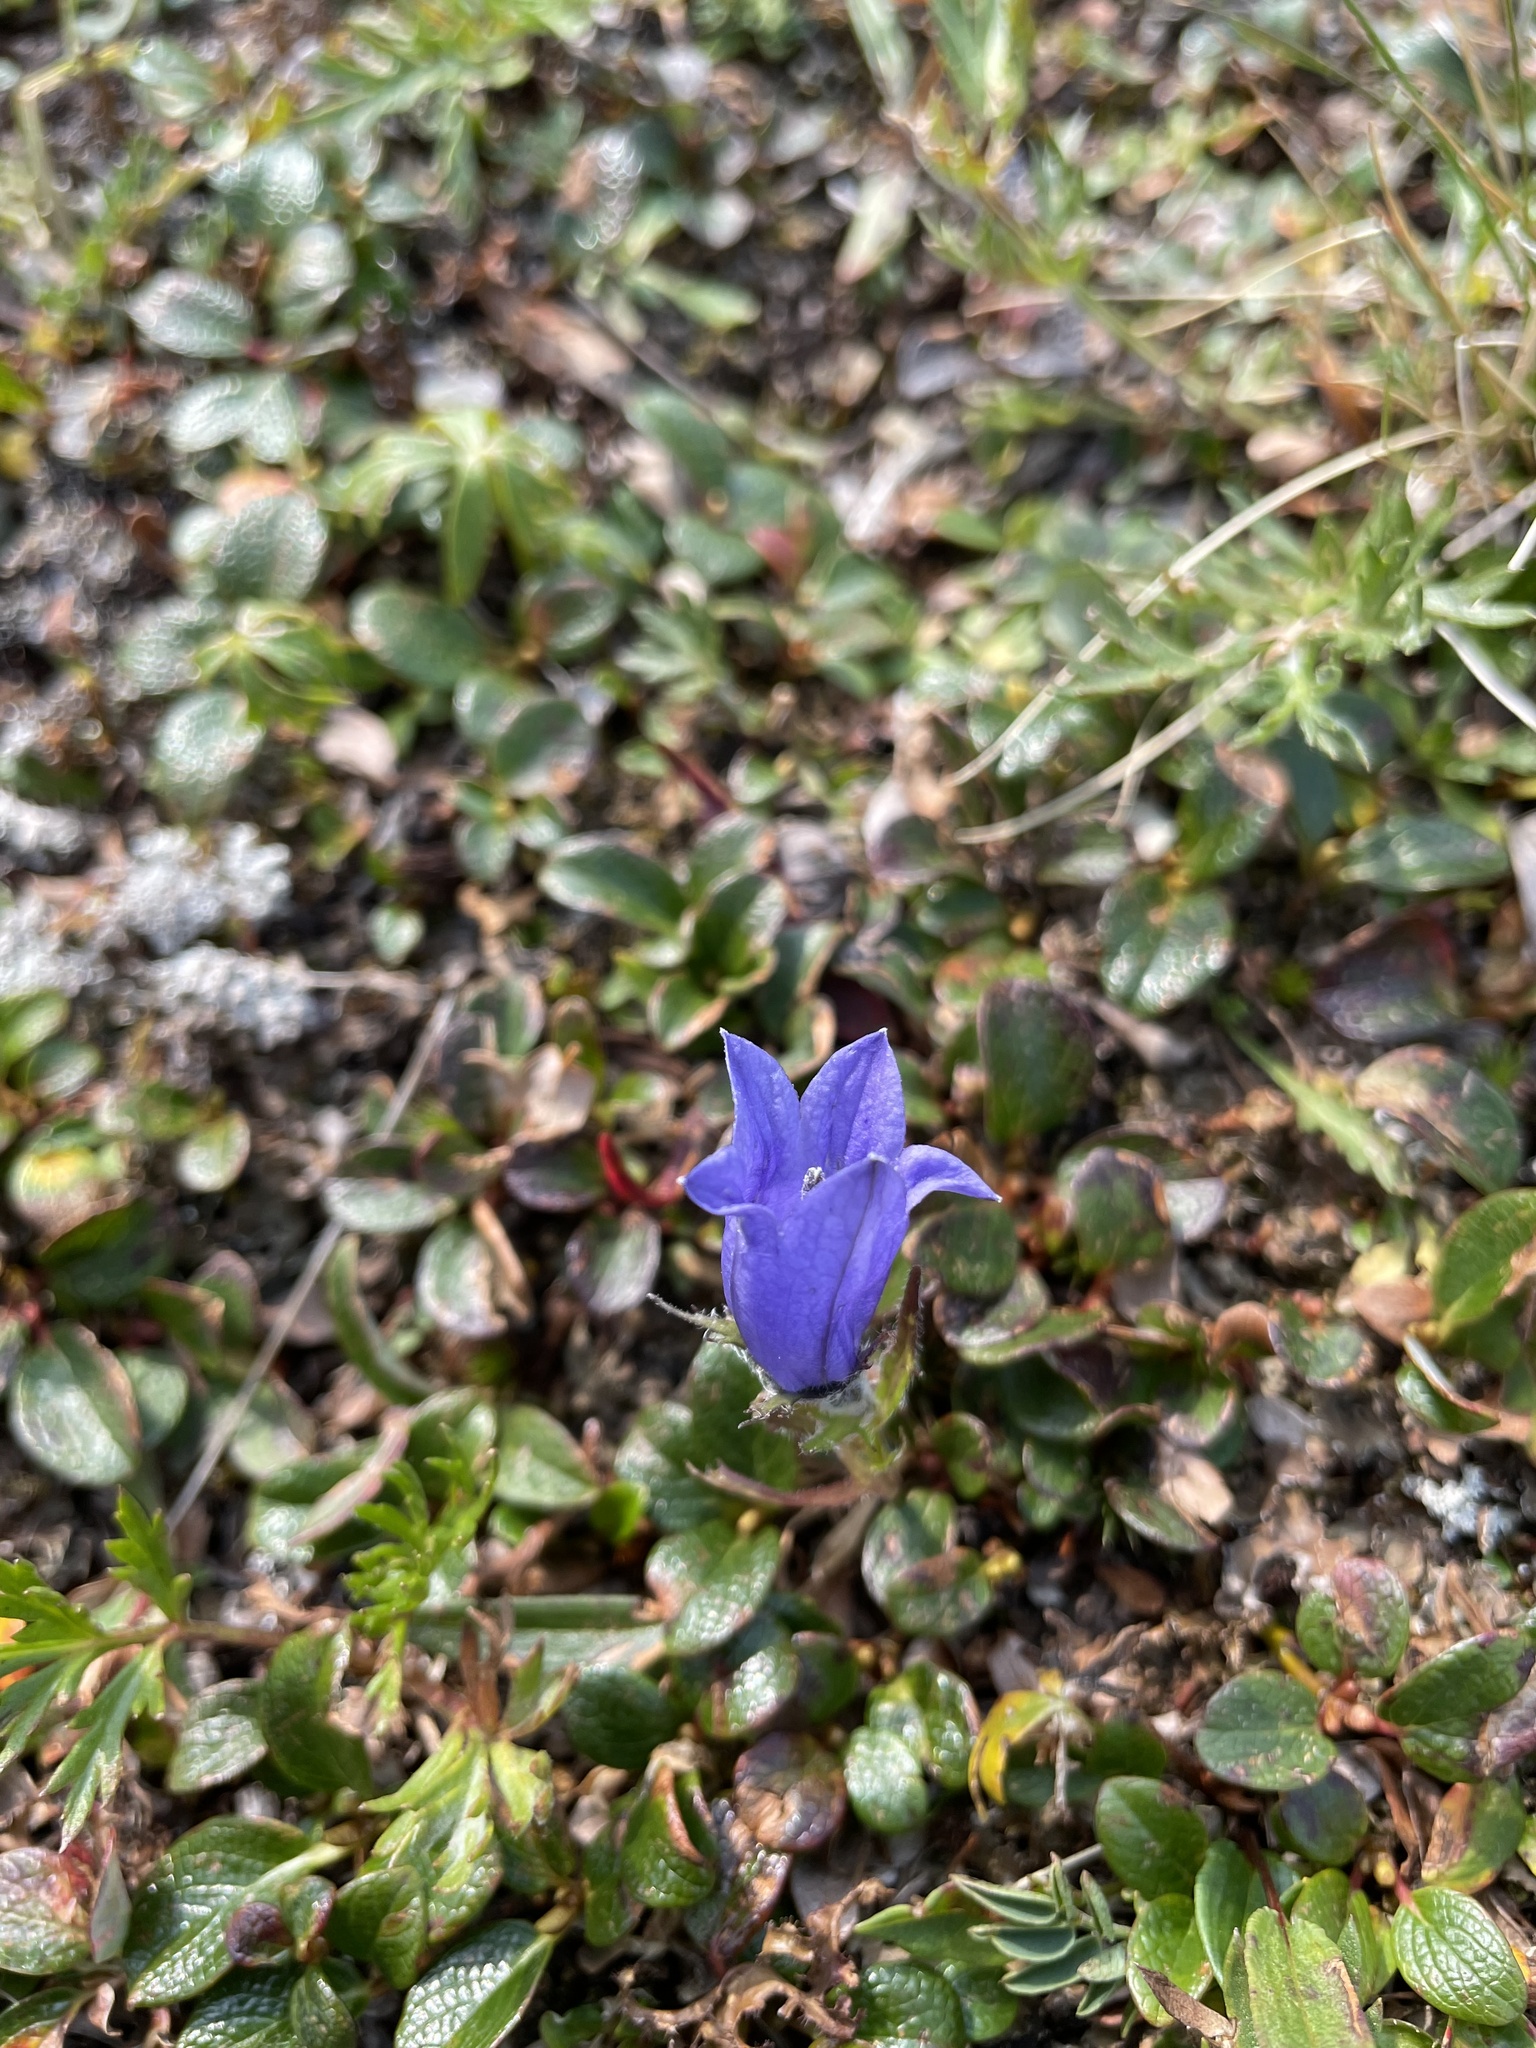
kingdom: Plantae
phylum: Tracheophyta
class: Magnoliopsida
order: Asterales
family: Campanulaceae
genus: Campanula
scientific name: Campanula lasiocarpa
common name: Mountain harebell
